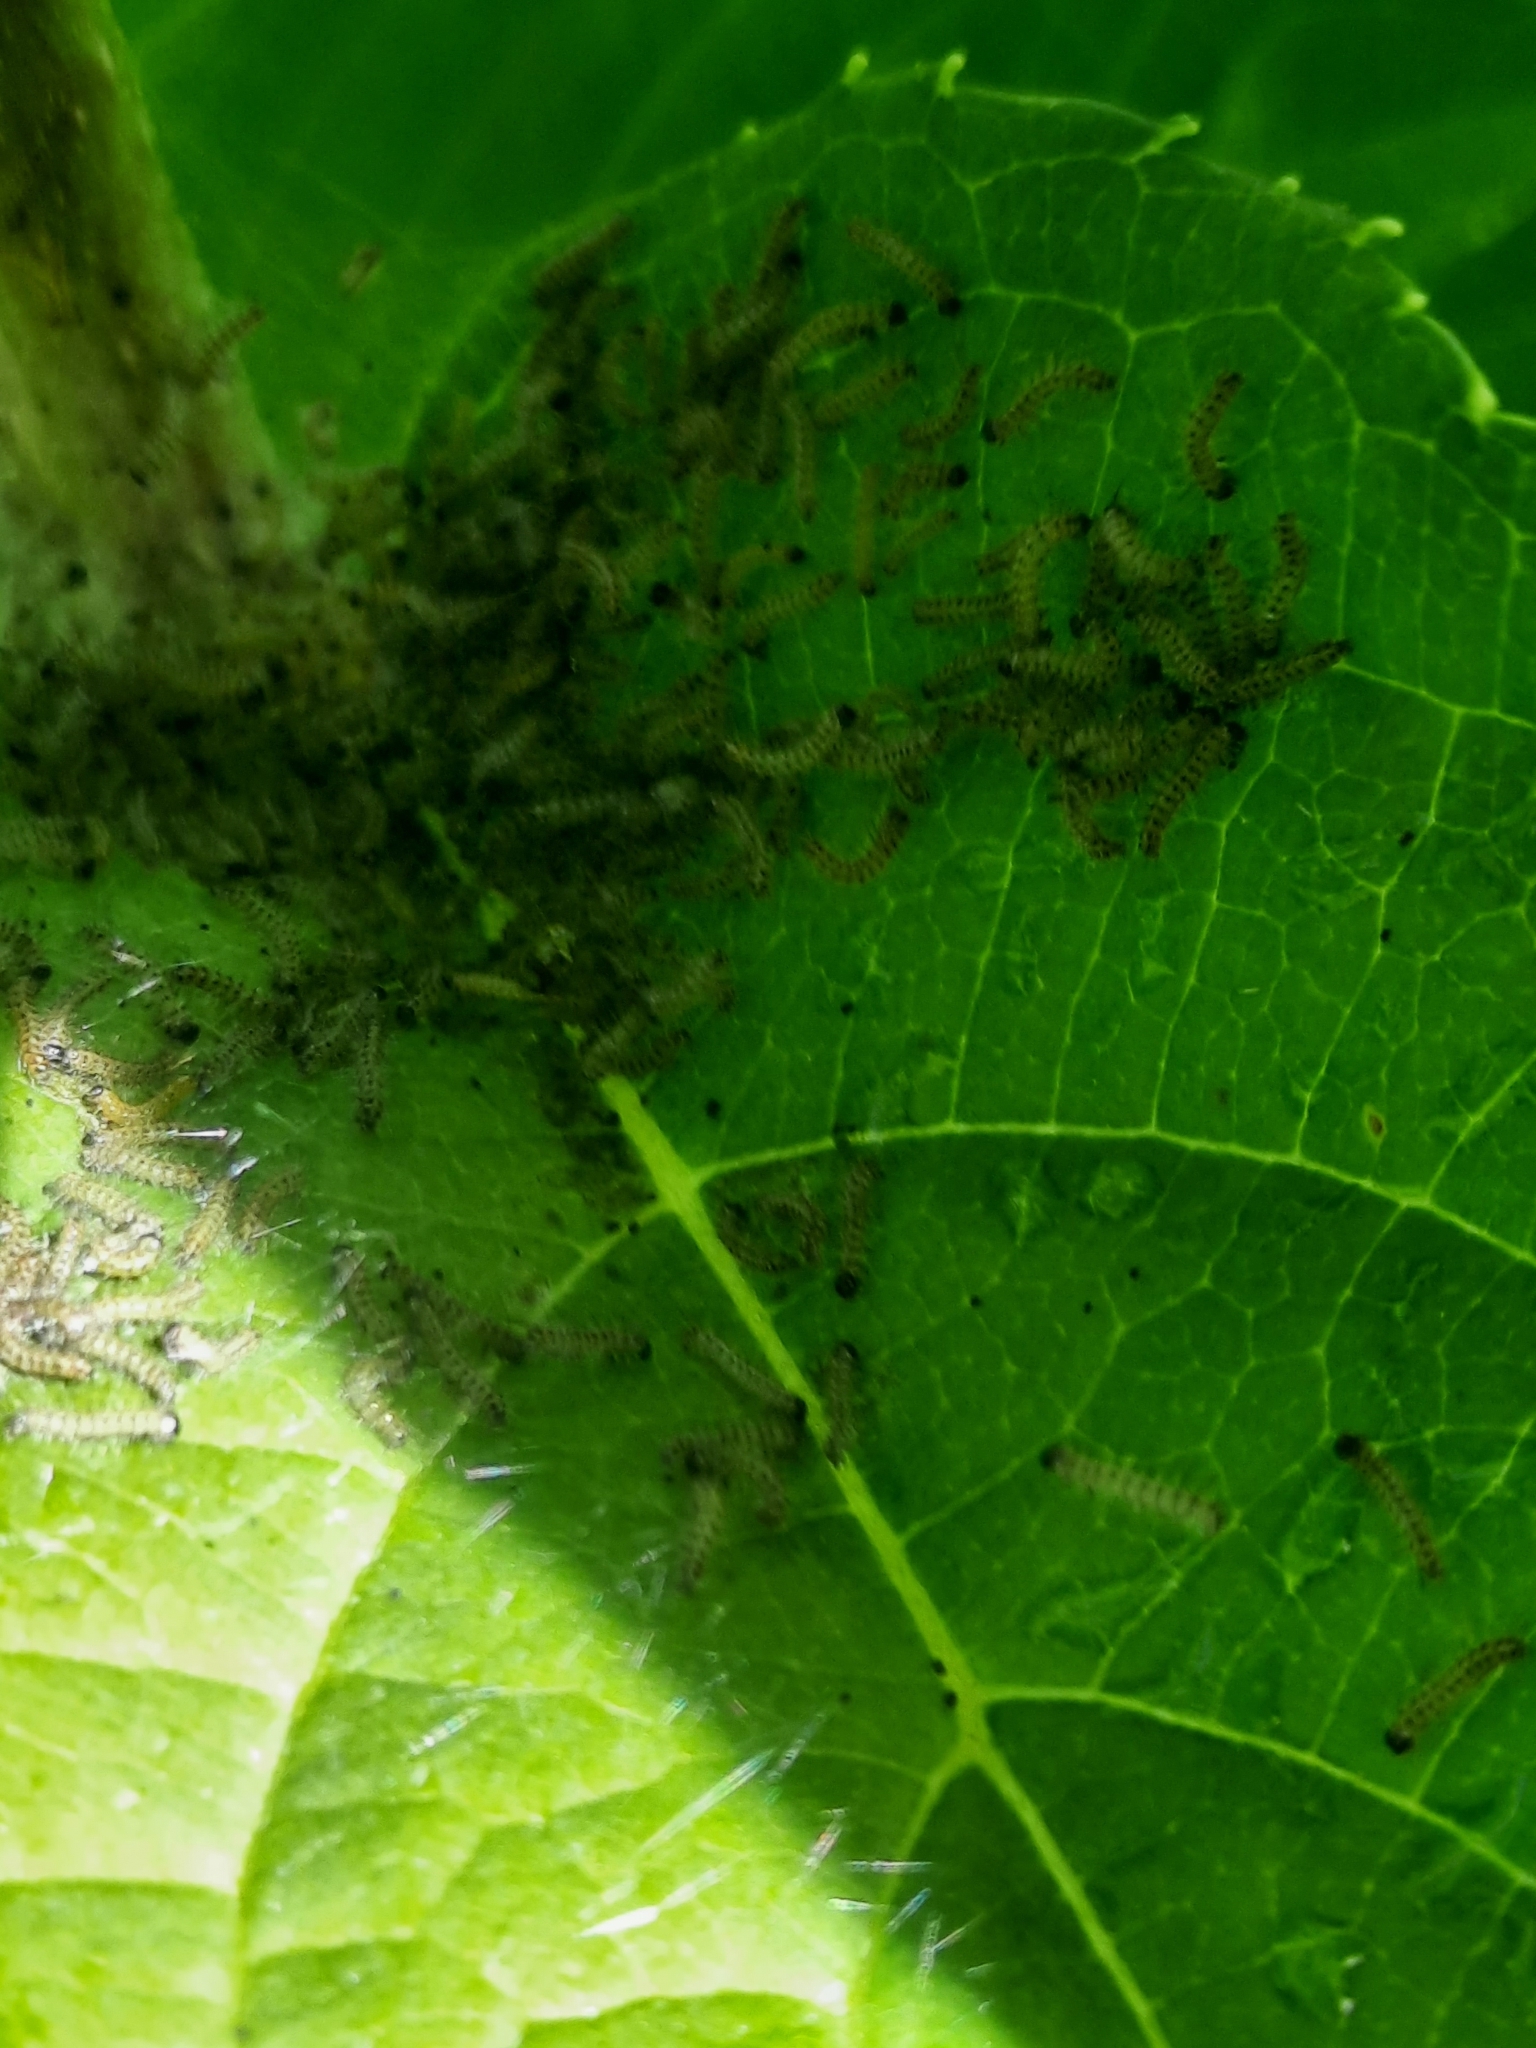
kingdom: Animalia
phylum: Arthropoda
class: Insecta
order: Lepidoptera
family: Erebidae
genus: Hyphantria
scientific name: Hyphantria cunea
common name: American white moth
